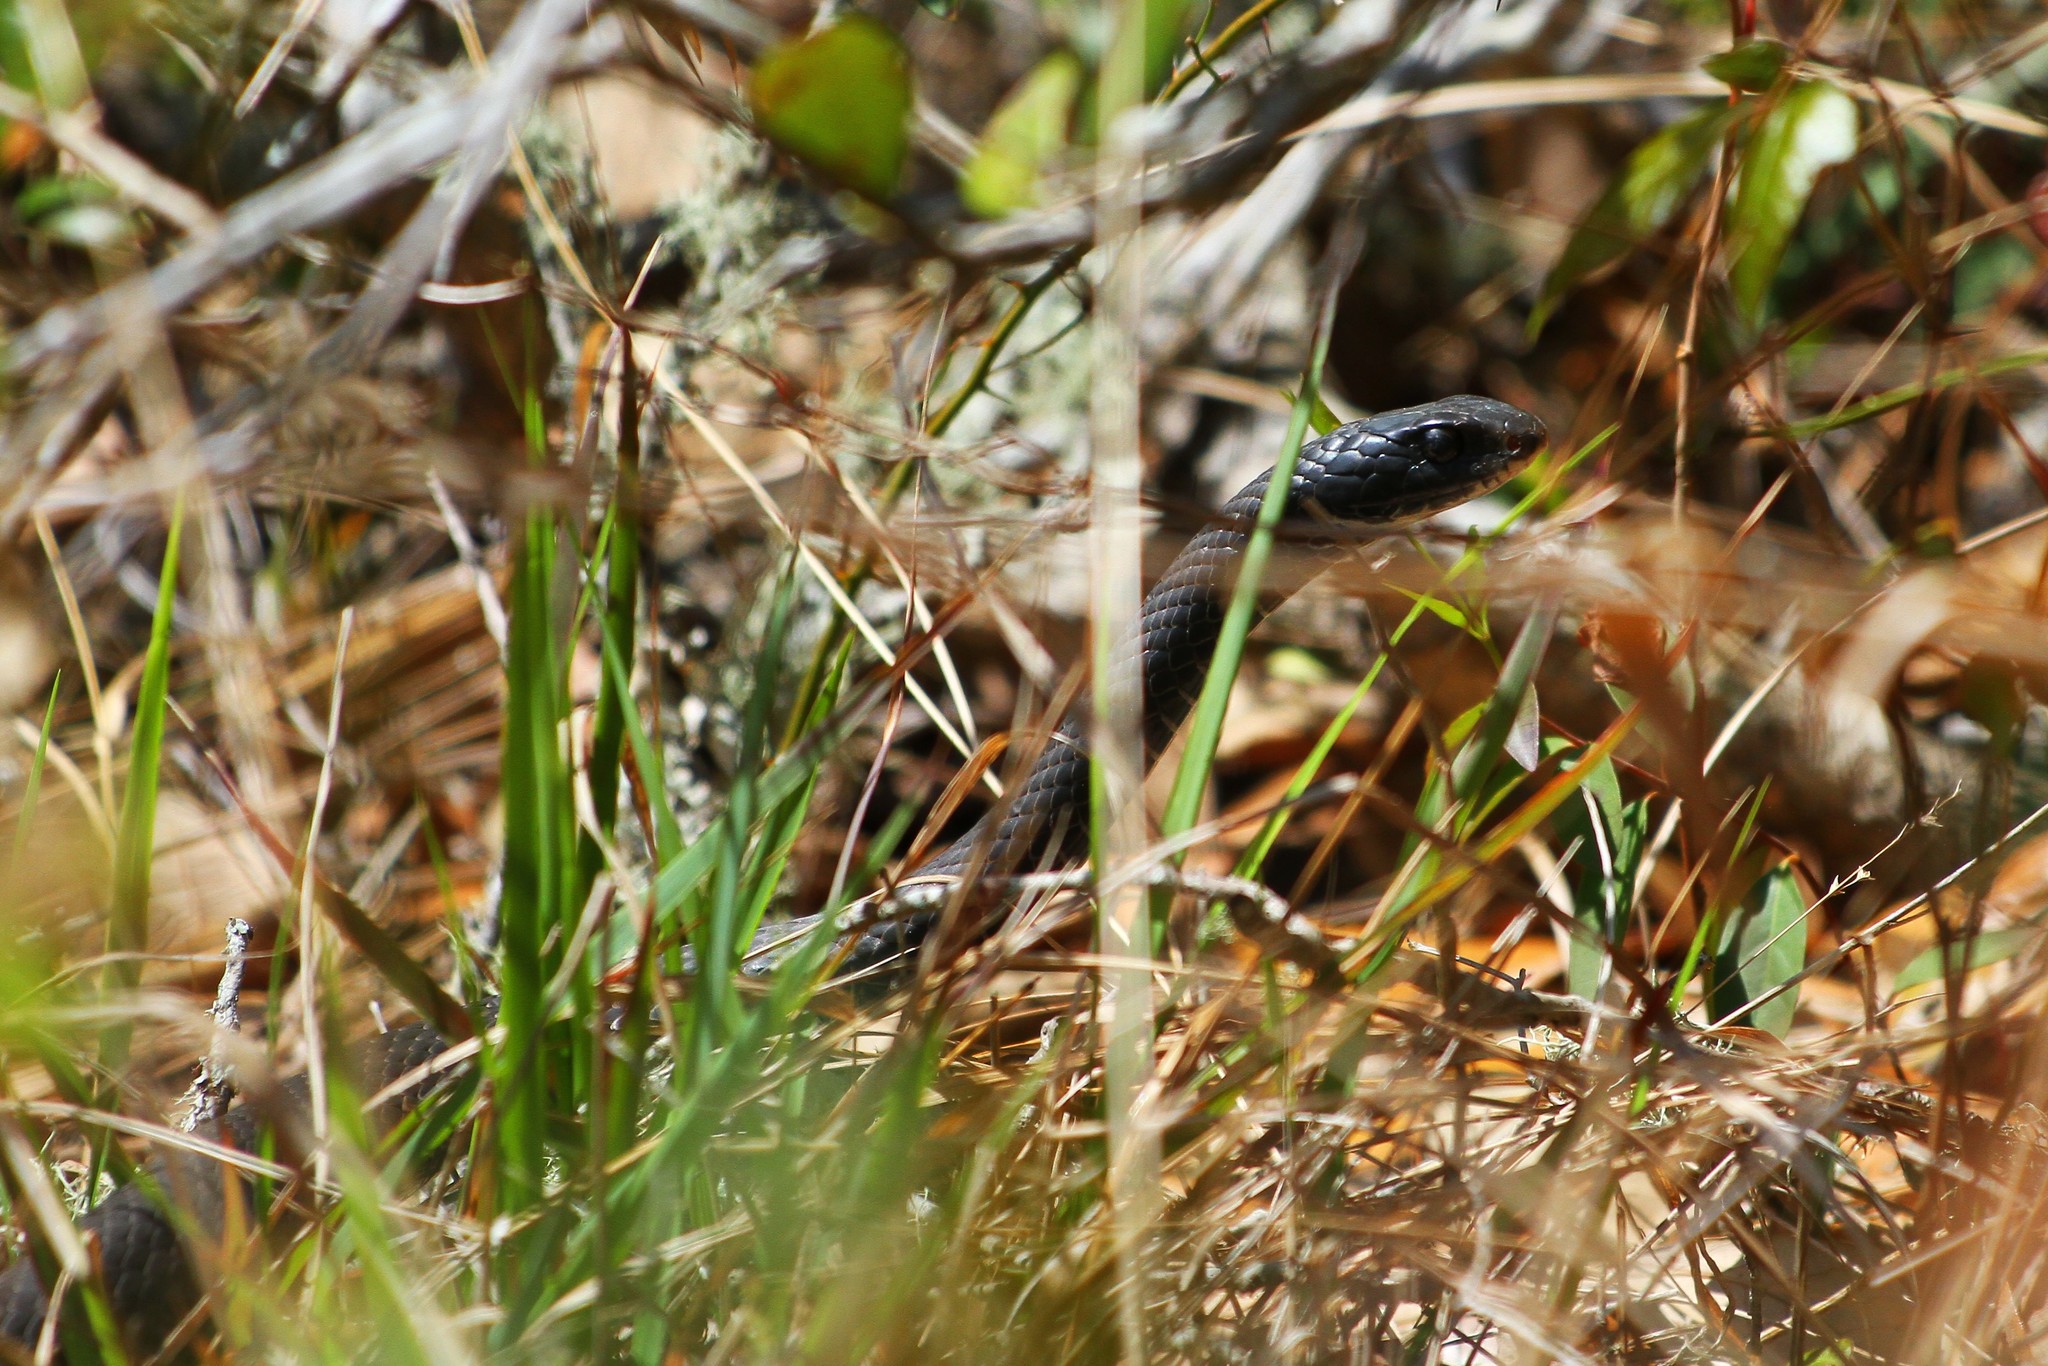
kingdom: Animalia
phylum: Chordata
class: Squamata
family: Colubridae
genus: Coluber
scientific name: Coluber constrictor
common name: Eastern racer
